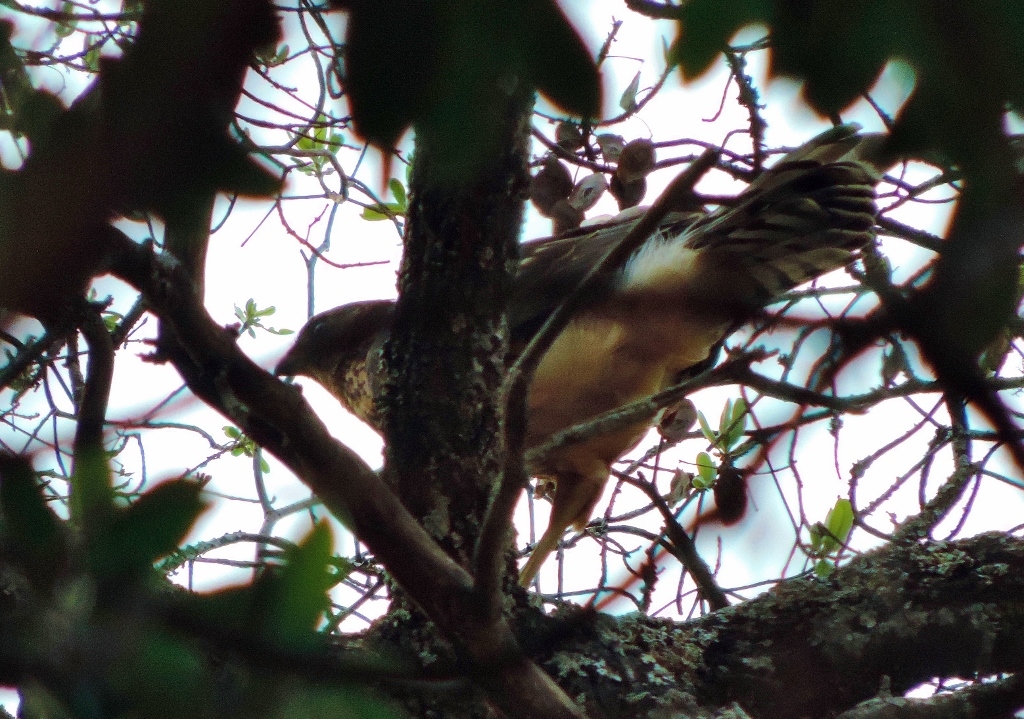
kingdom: Animalia
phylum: Chordata
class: Aves
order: Accipitriformes
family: Accipitridae
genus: Accipiter
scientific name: Accipiter melanoleucus
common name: Black sparrowhawk
